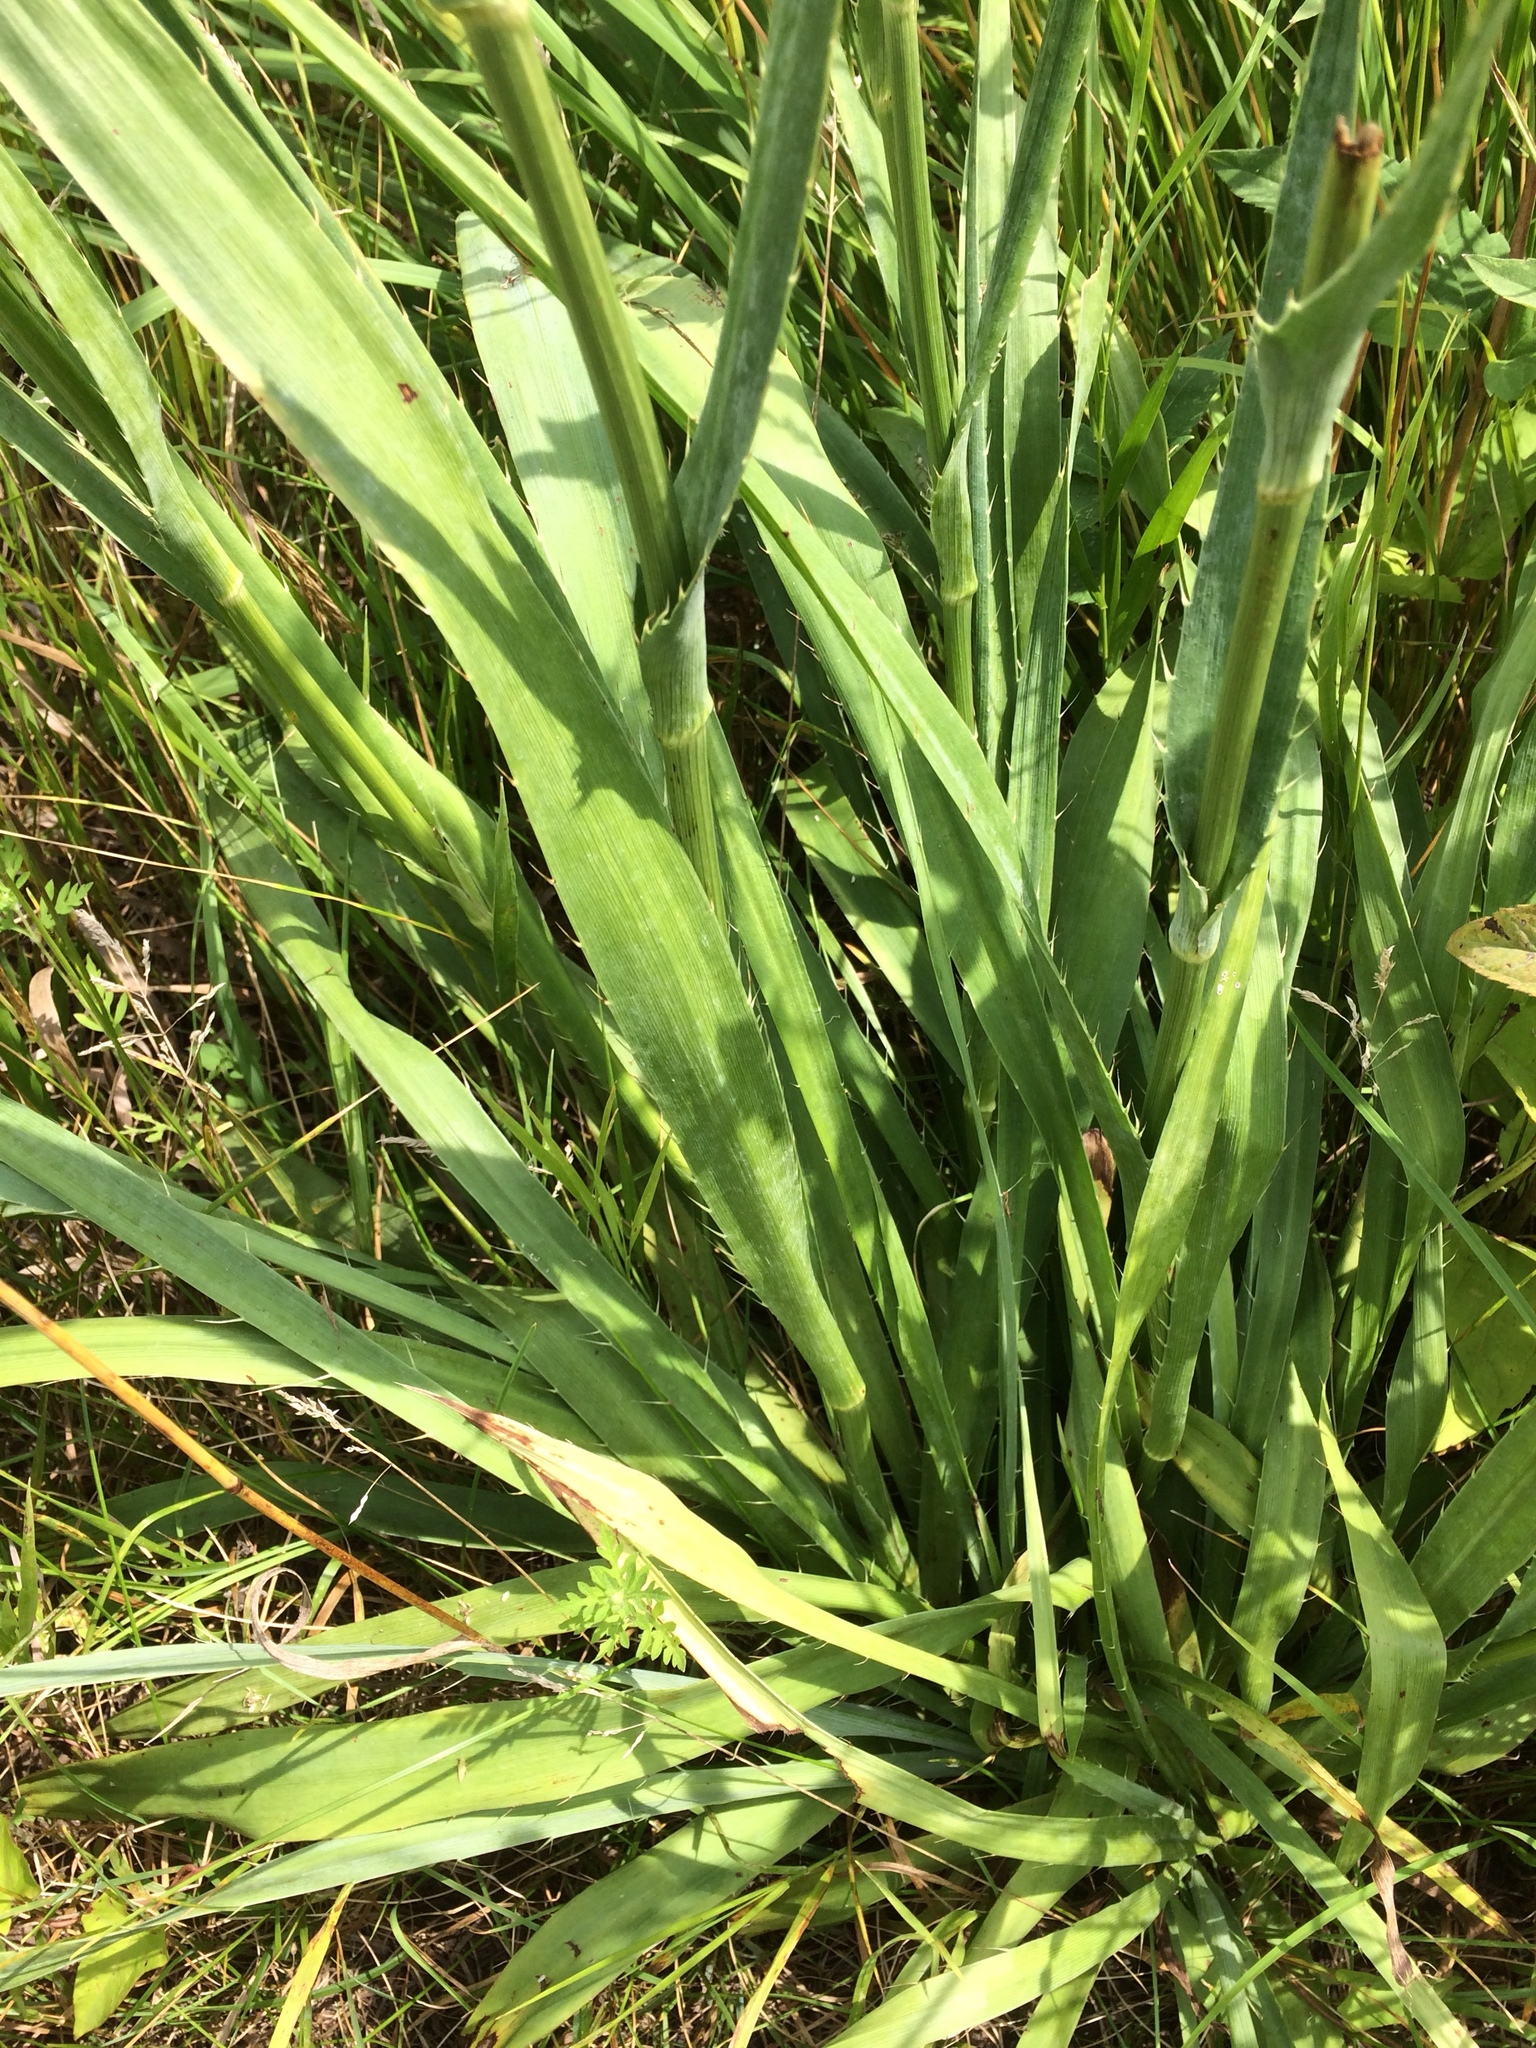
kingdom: Plantae
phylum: Tracheophyta
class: Magnoliopsida
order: Apiales
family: Apiaceae
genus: Eryngium
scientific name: Eryngium yuccifolium
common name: Button eryngo
